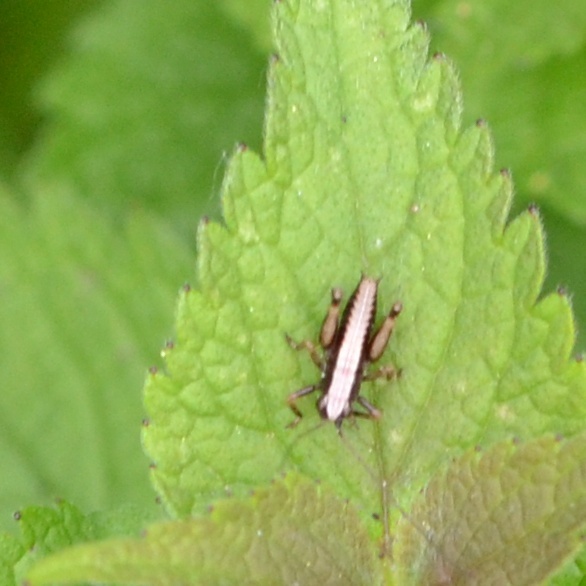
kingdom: Animalia
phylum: Arthropoda
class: Insecta
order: Orthoptera
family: Tettigoniidae
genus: Pholidoptera
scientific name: Pholidoptera griseoaptera
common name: Dark bush-cricket
